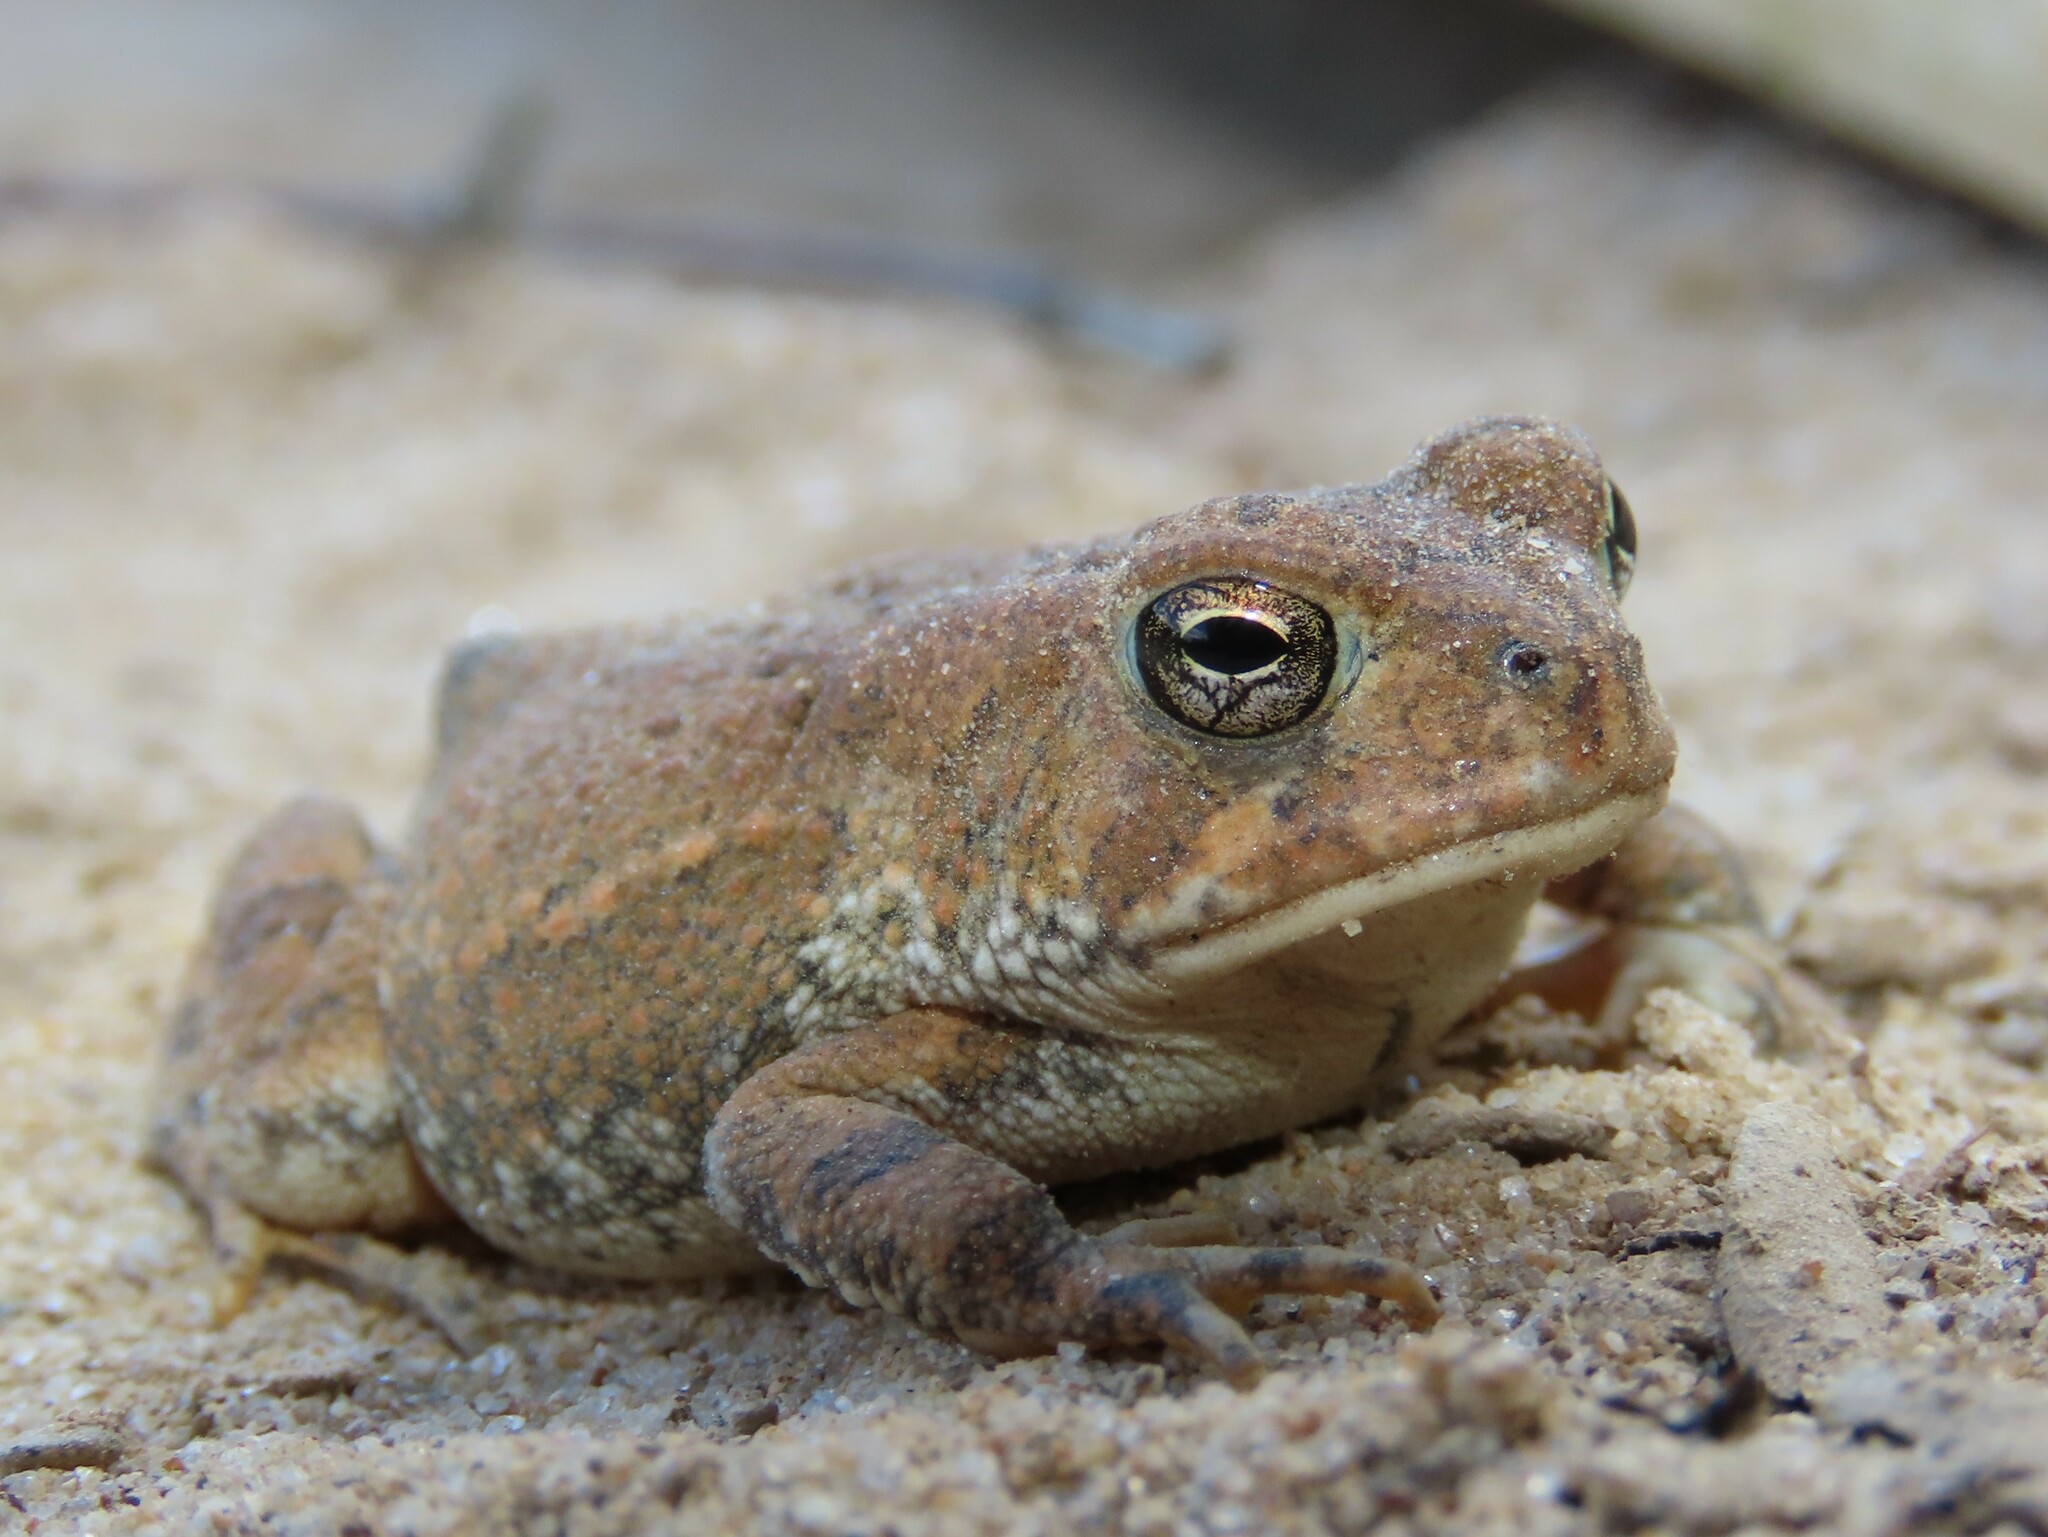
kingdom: Animalia
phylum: Chordata
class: Amphibia
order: Anura
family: Bufonidae
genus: Anaxyrus
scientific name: Anaxyrus fowleri
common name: Fowler's toad
